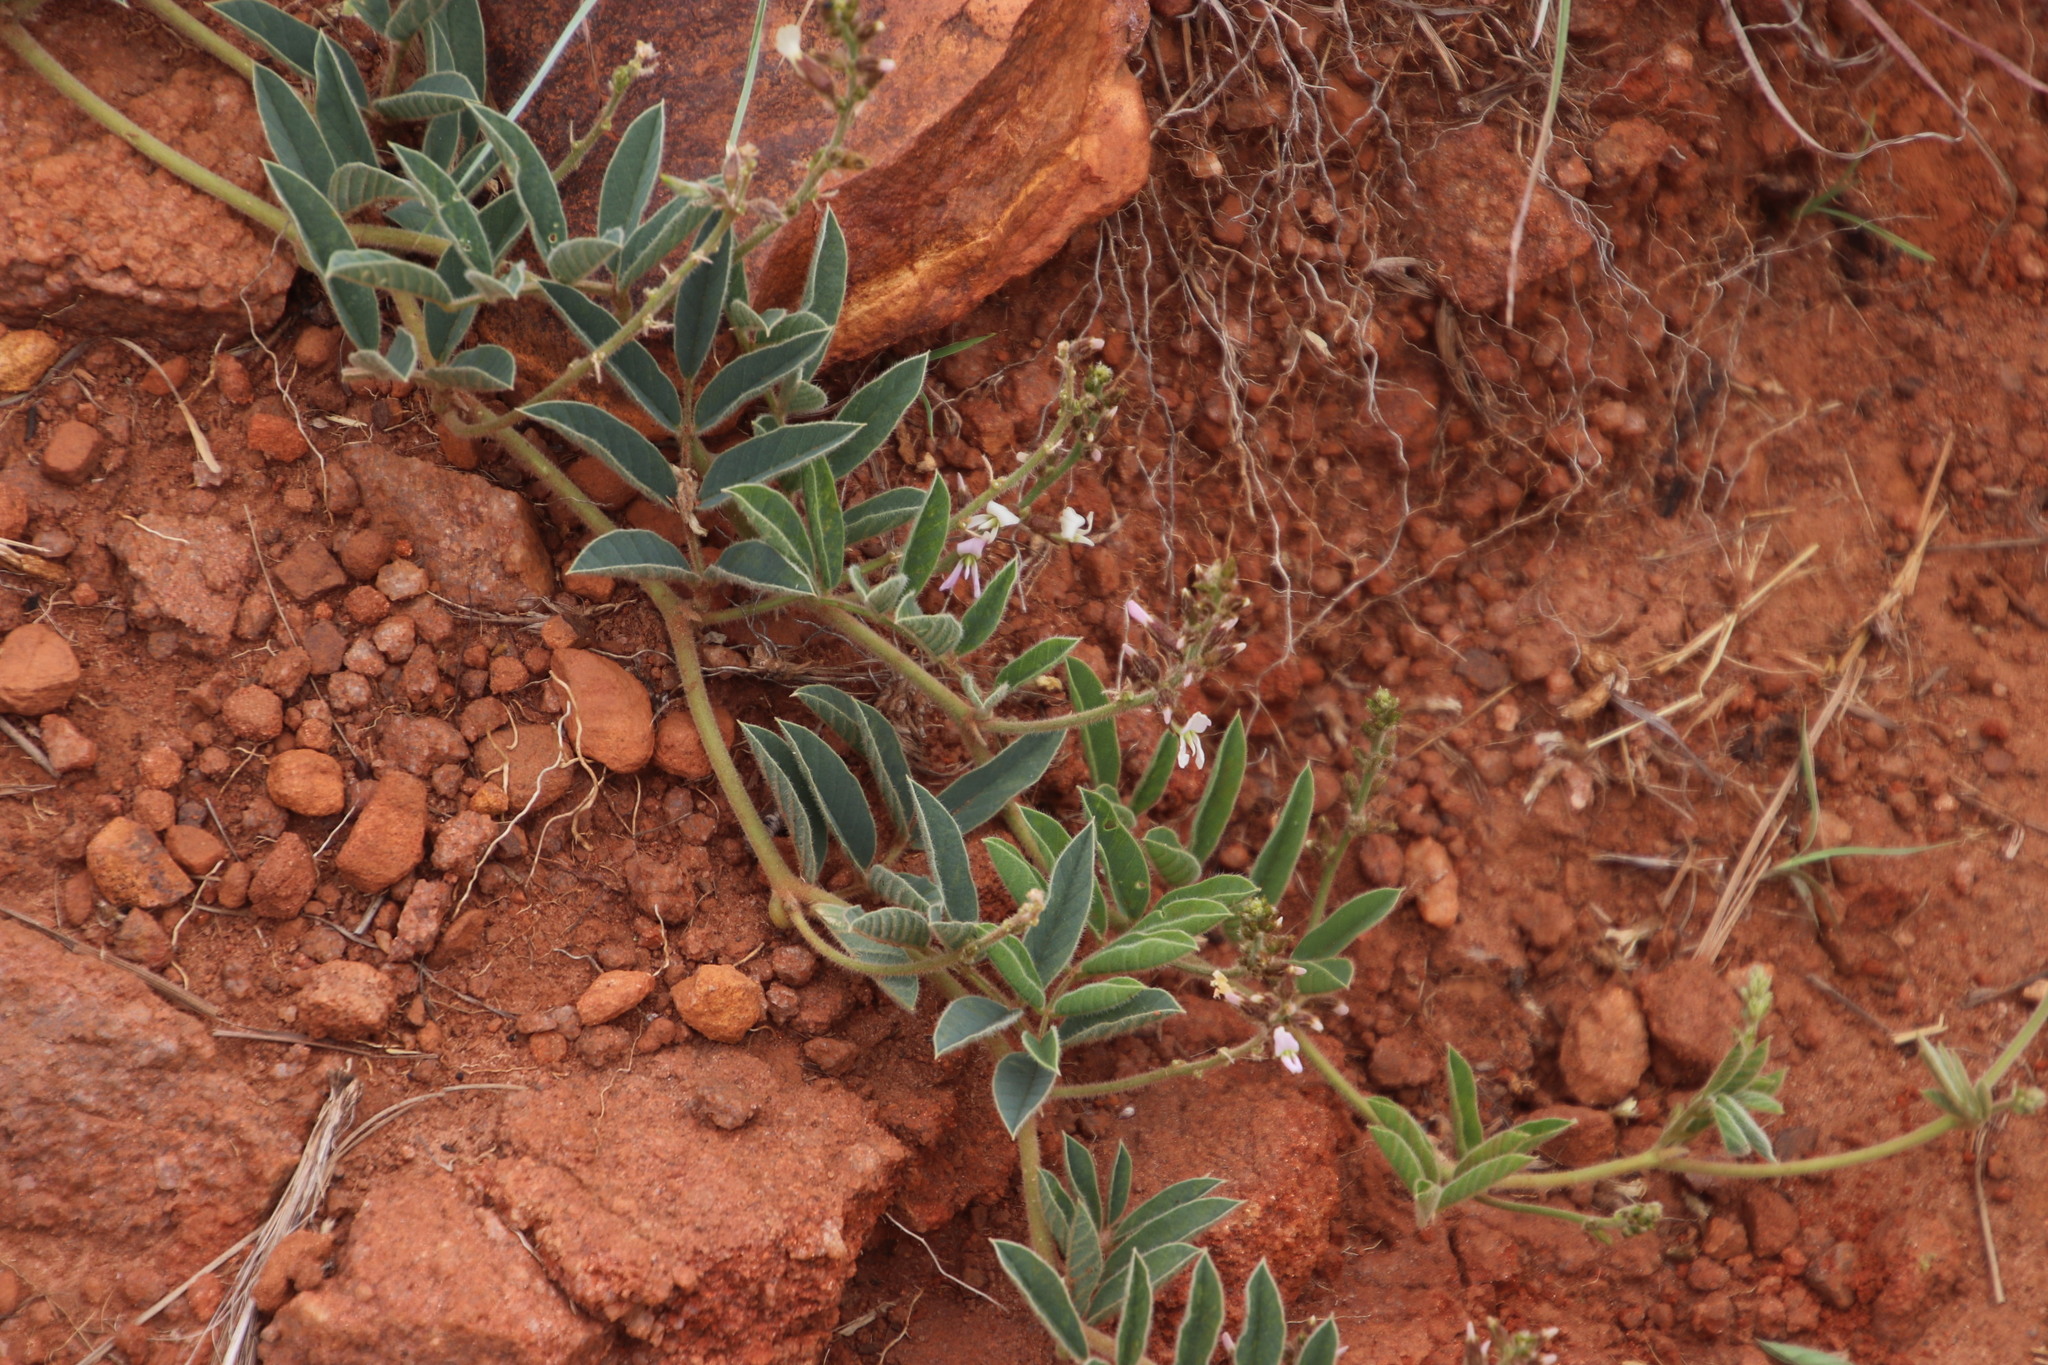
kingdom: Plantae
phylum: Tracheophyta
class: Magnoliopsida
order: Fabales
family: Fabaceae
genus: Ophrestia
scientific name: Ophrestia oblongifolia
